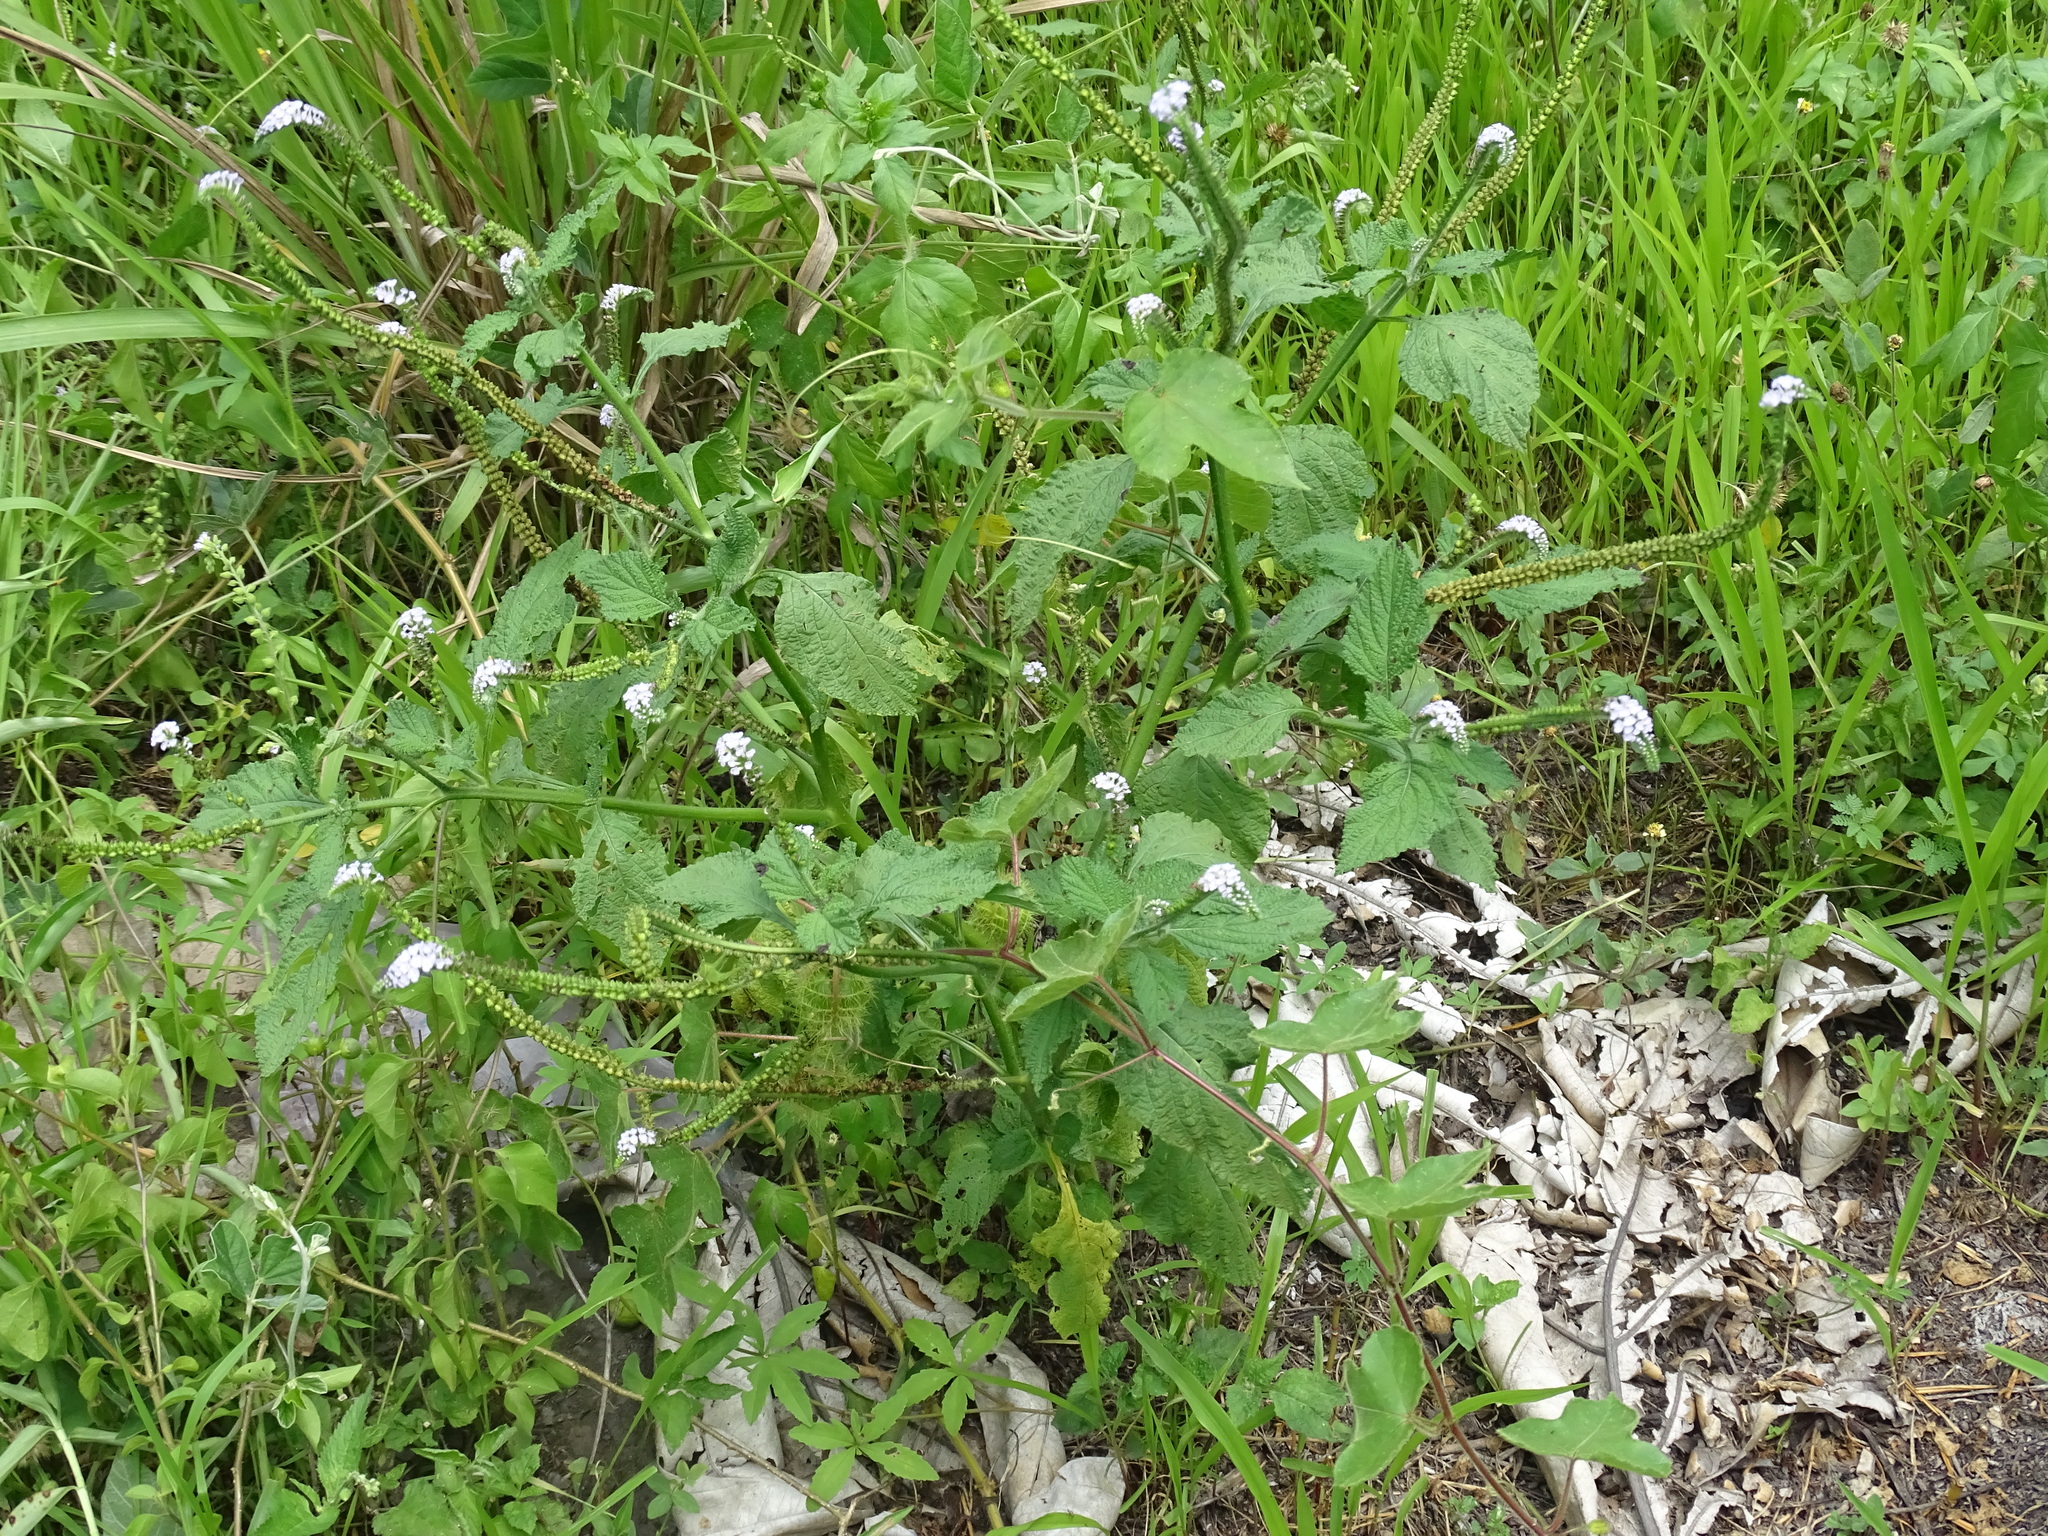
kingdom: Plantae
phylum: Tracheophyta
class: Magnoliopsida
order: Boraginales
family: Heliotropiaceae
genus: Heliotropium
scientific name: Heliotropium indicum
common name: Indian heliotrope
